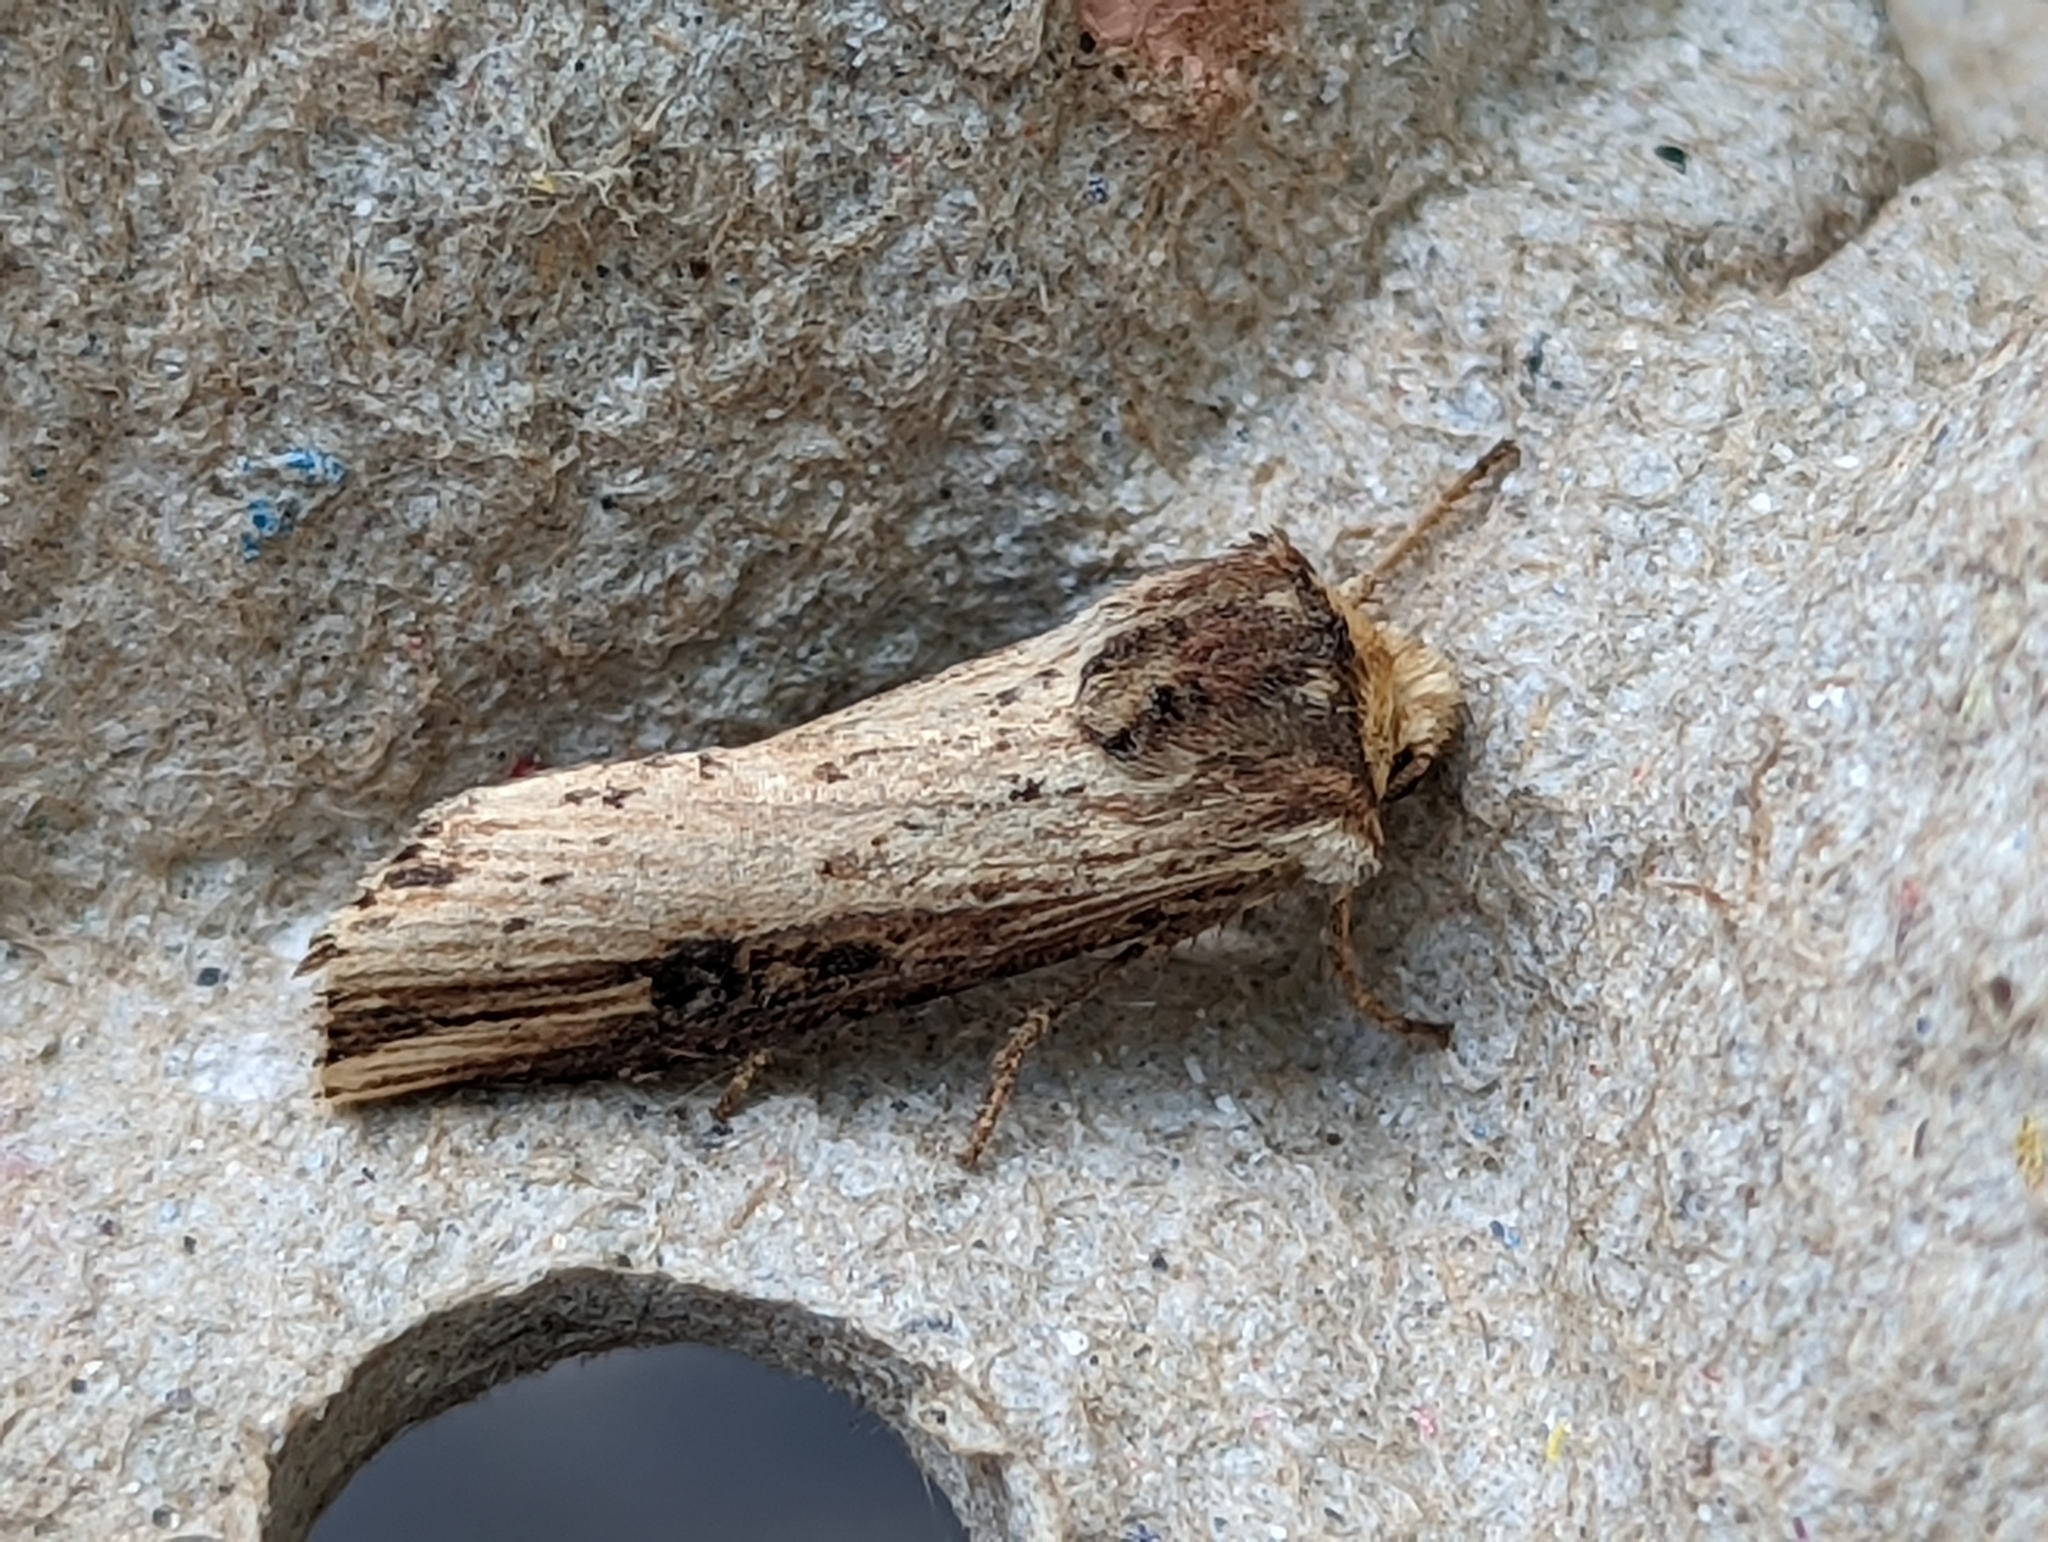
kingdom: Animalia
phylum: Arthropoda
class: Insecta
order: Lepidoptera
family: Noctuidae
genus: Axylia
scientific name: Axylia putris
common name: Flame
